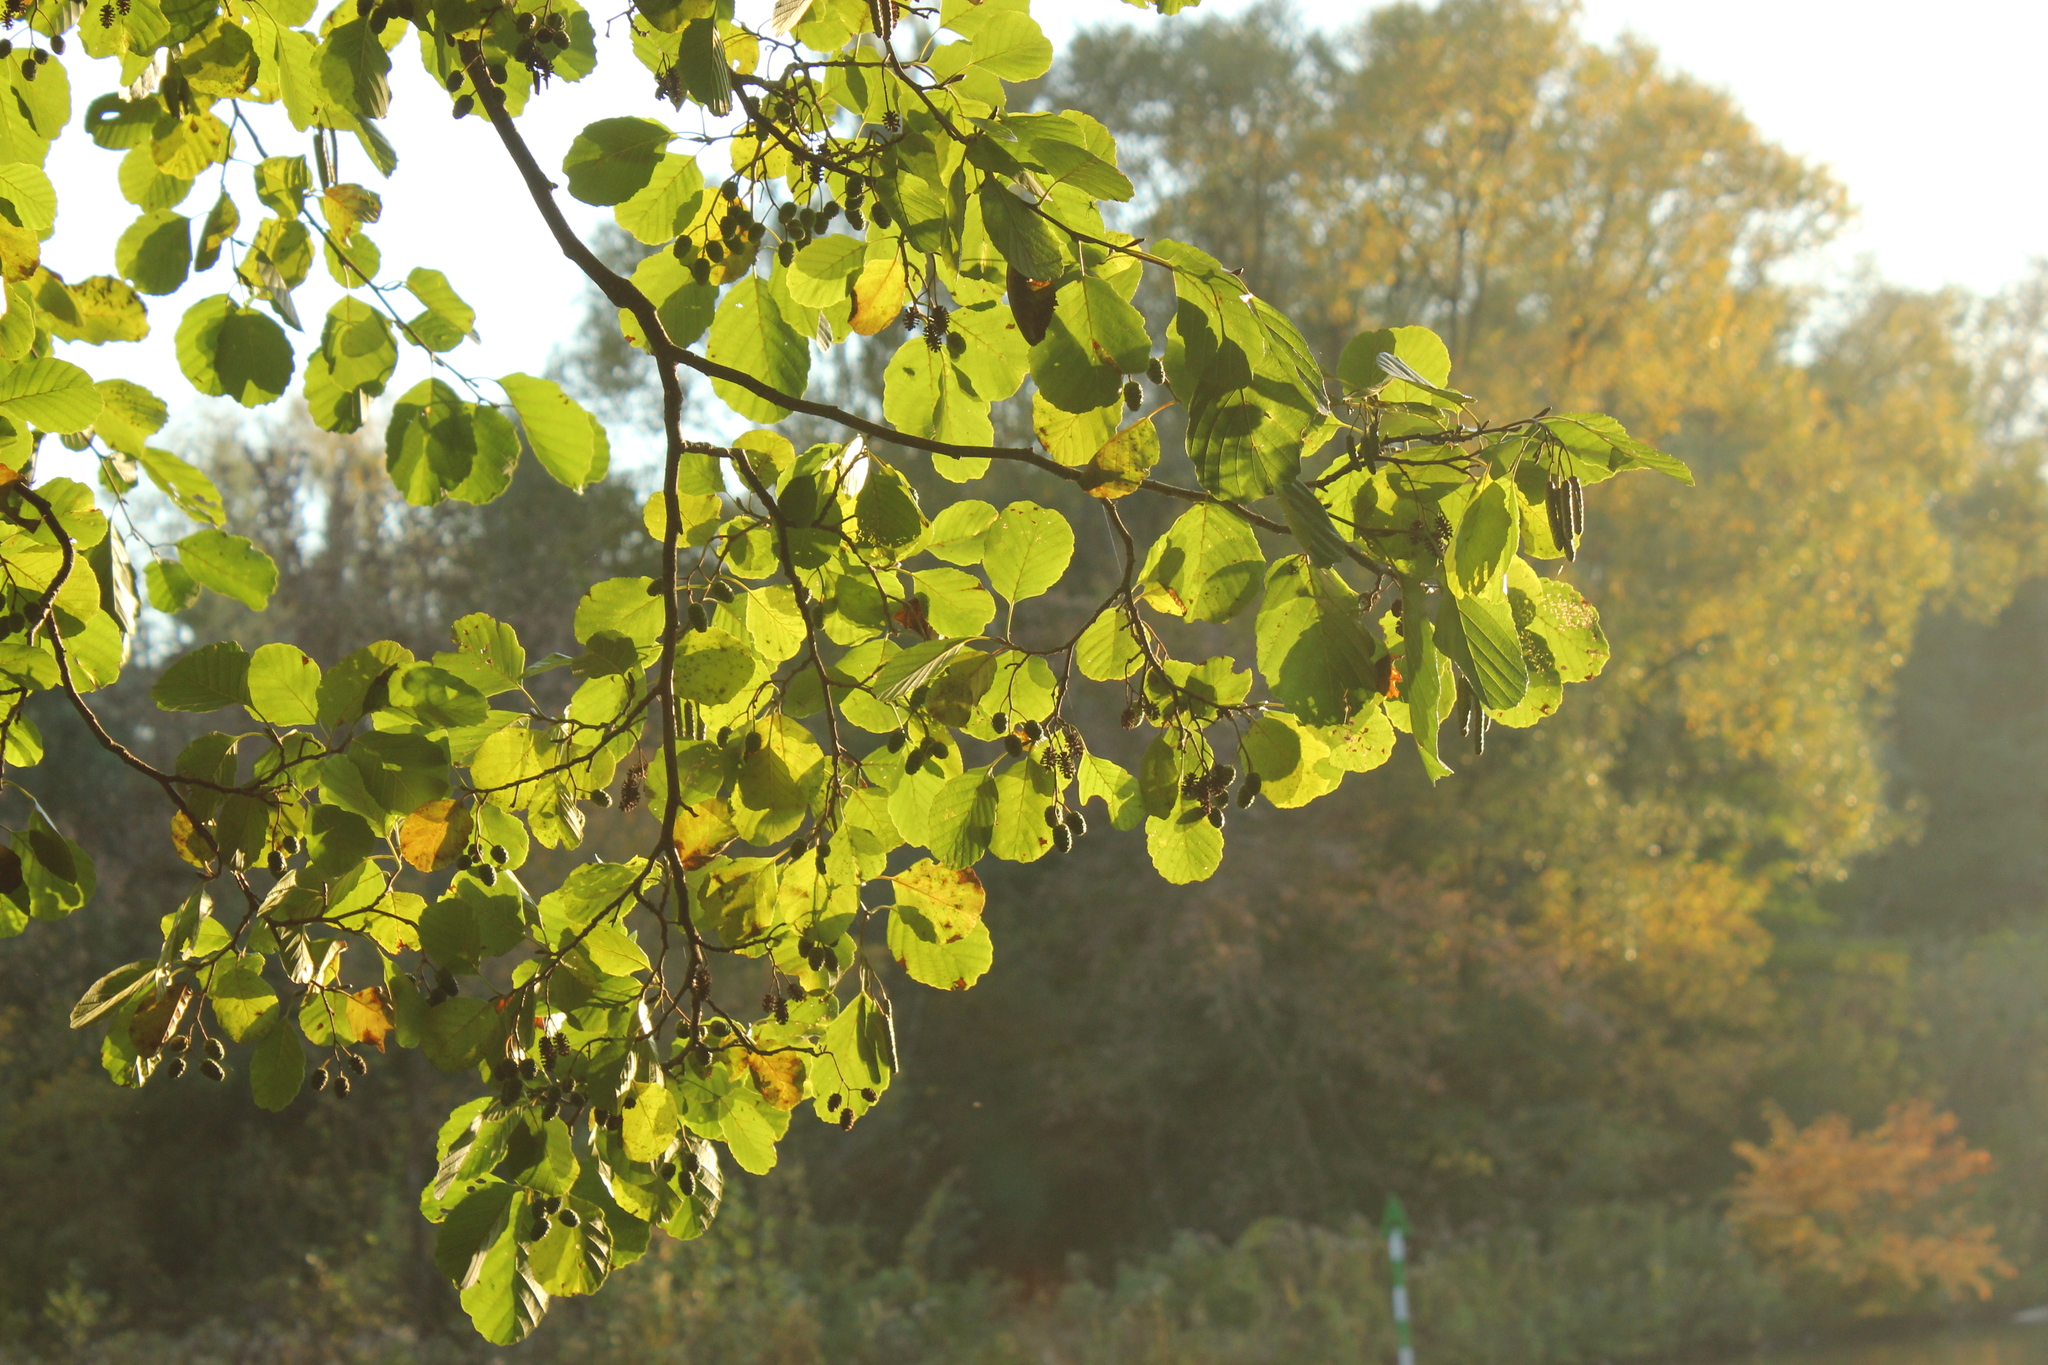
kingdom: Plantae
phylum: Tracheophyta
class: Magnoliopsida
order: Fagales
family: Betulaceae
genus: Alnus
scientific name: Alnus glutinosa
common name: Black alder
